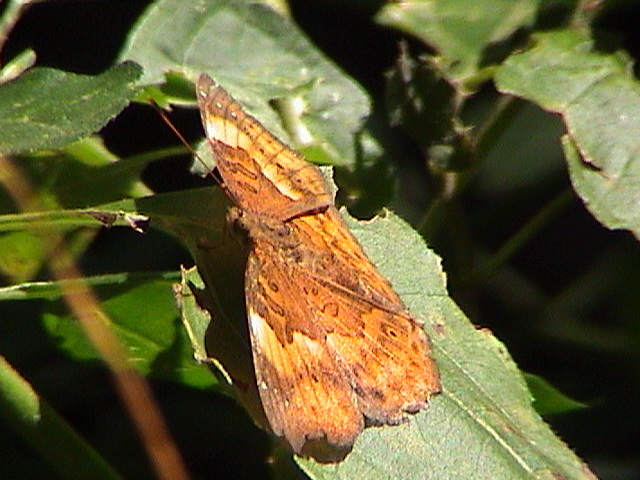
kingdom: Animalia
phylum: Arthropoda
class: Insecta
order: Lepidoptera
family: Nymphalidae
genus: Apatura
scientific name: Apatura Rohana spec
